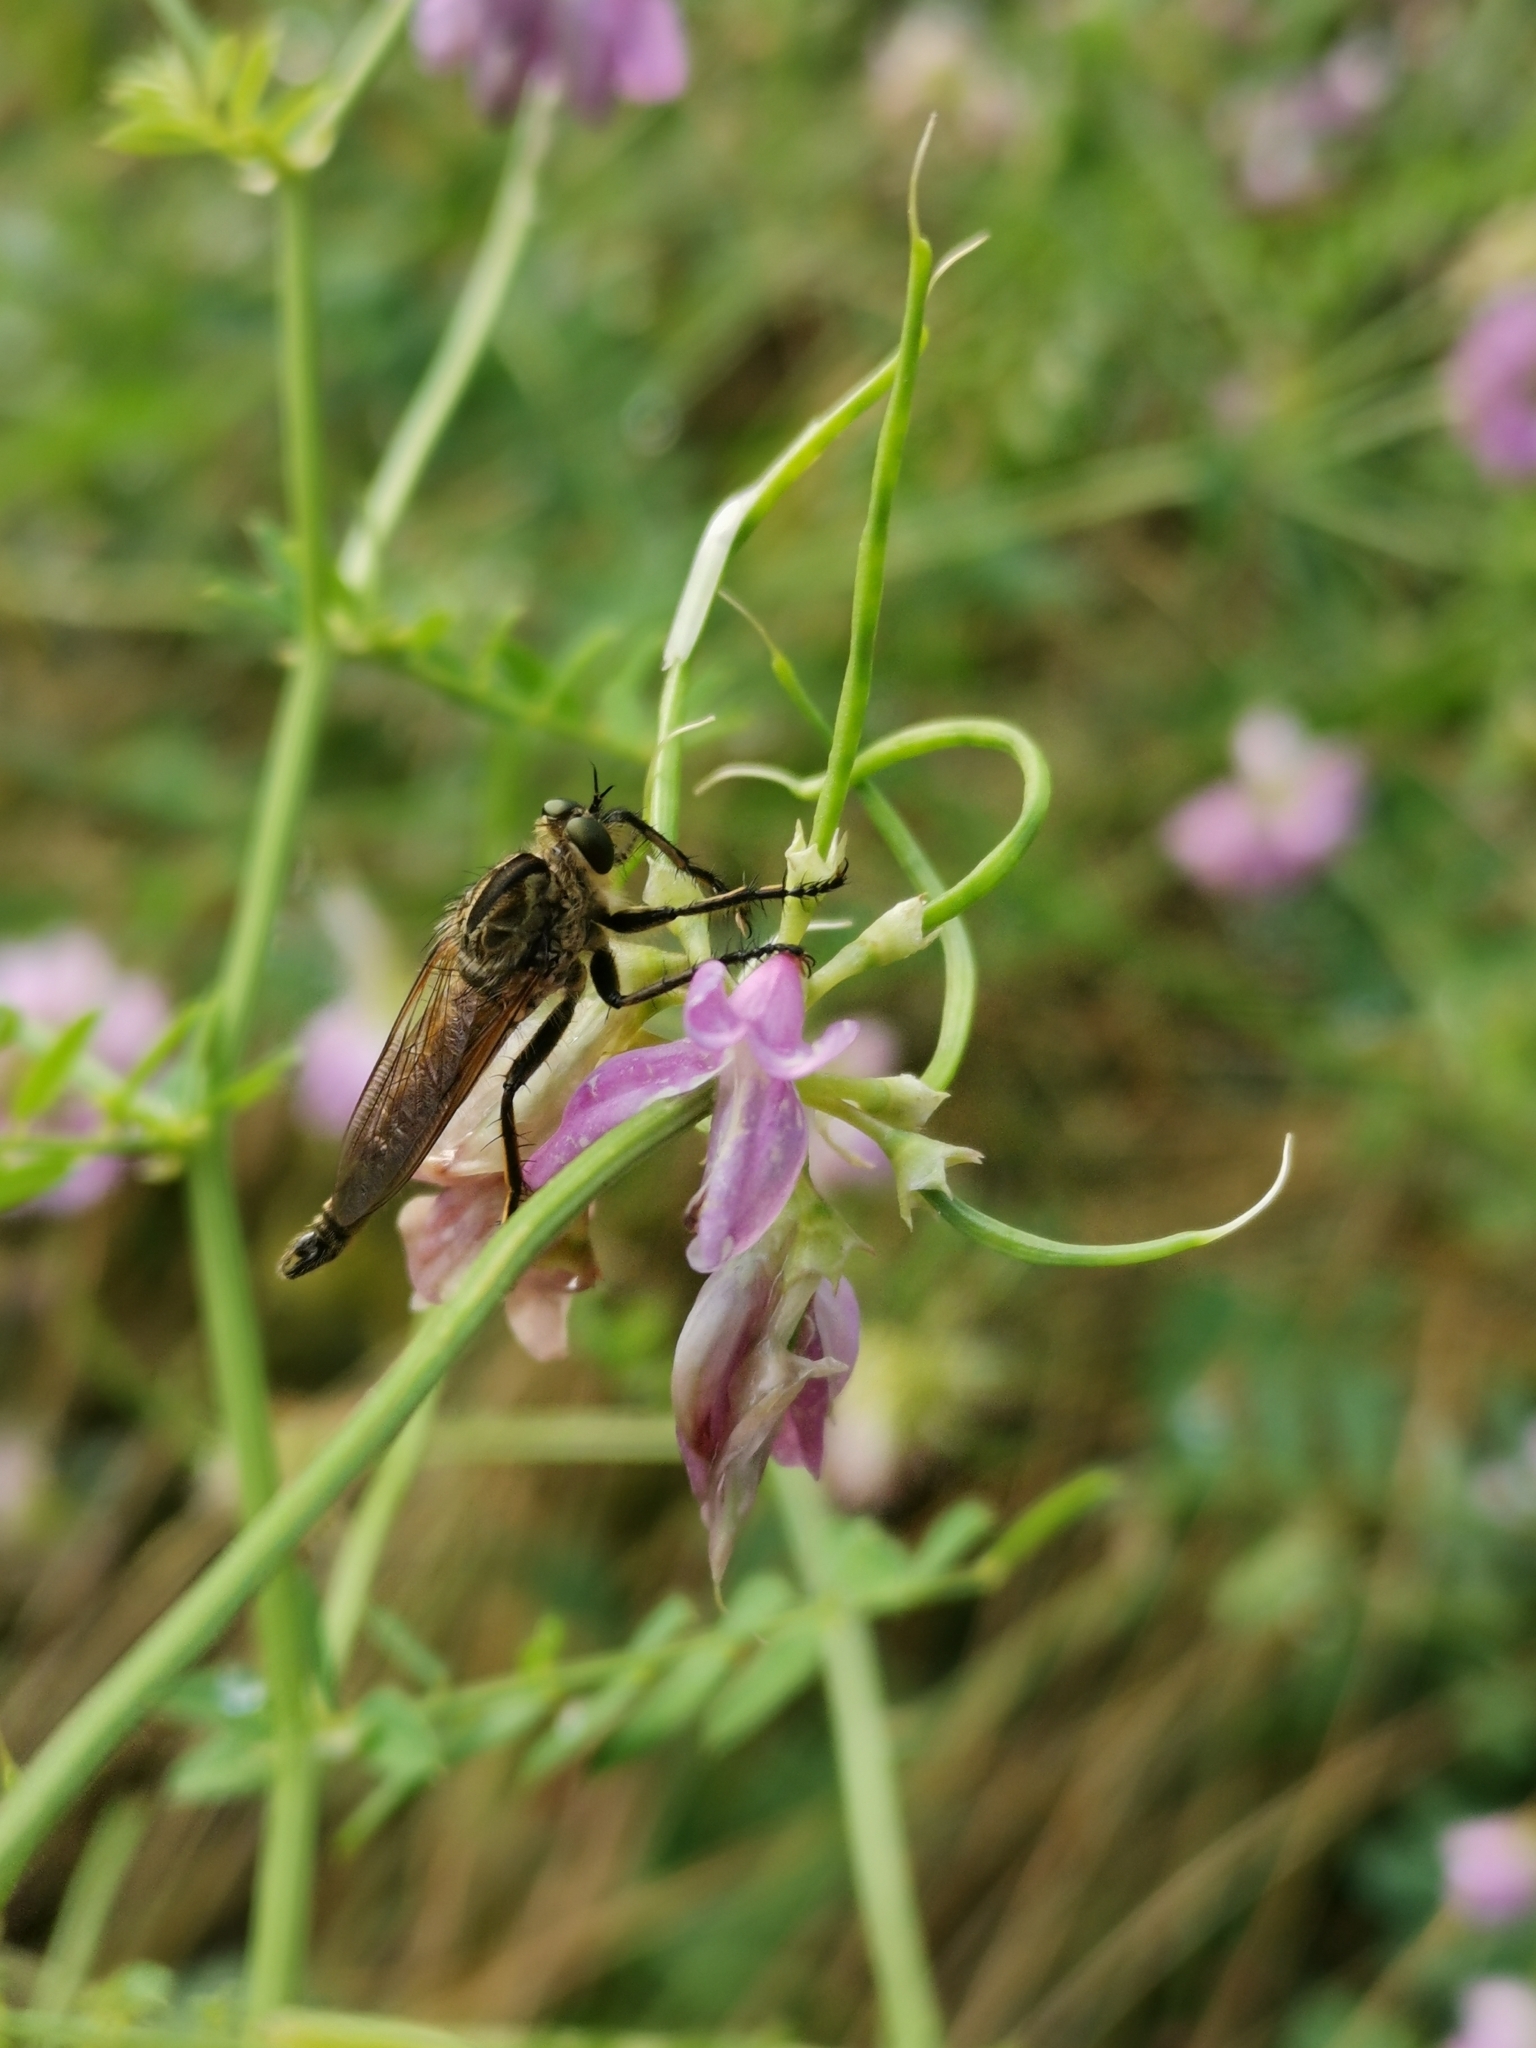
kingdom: Animalia
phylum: Arthropoda
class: Insecta
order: Diptera
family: Asilidae
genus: Eutolmus
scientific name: Eutolmus rufibarbis
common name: Golden-tabbed robberfly
